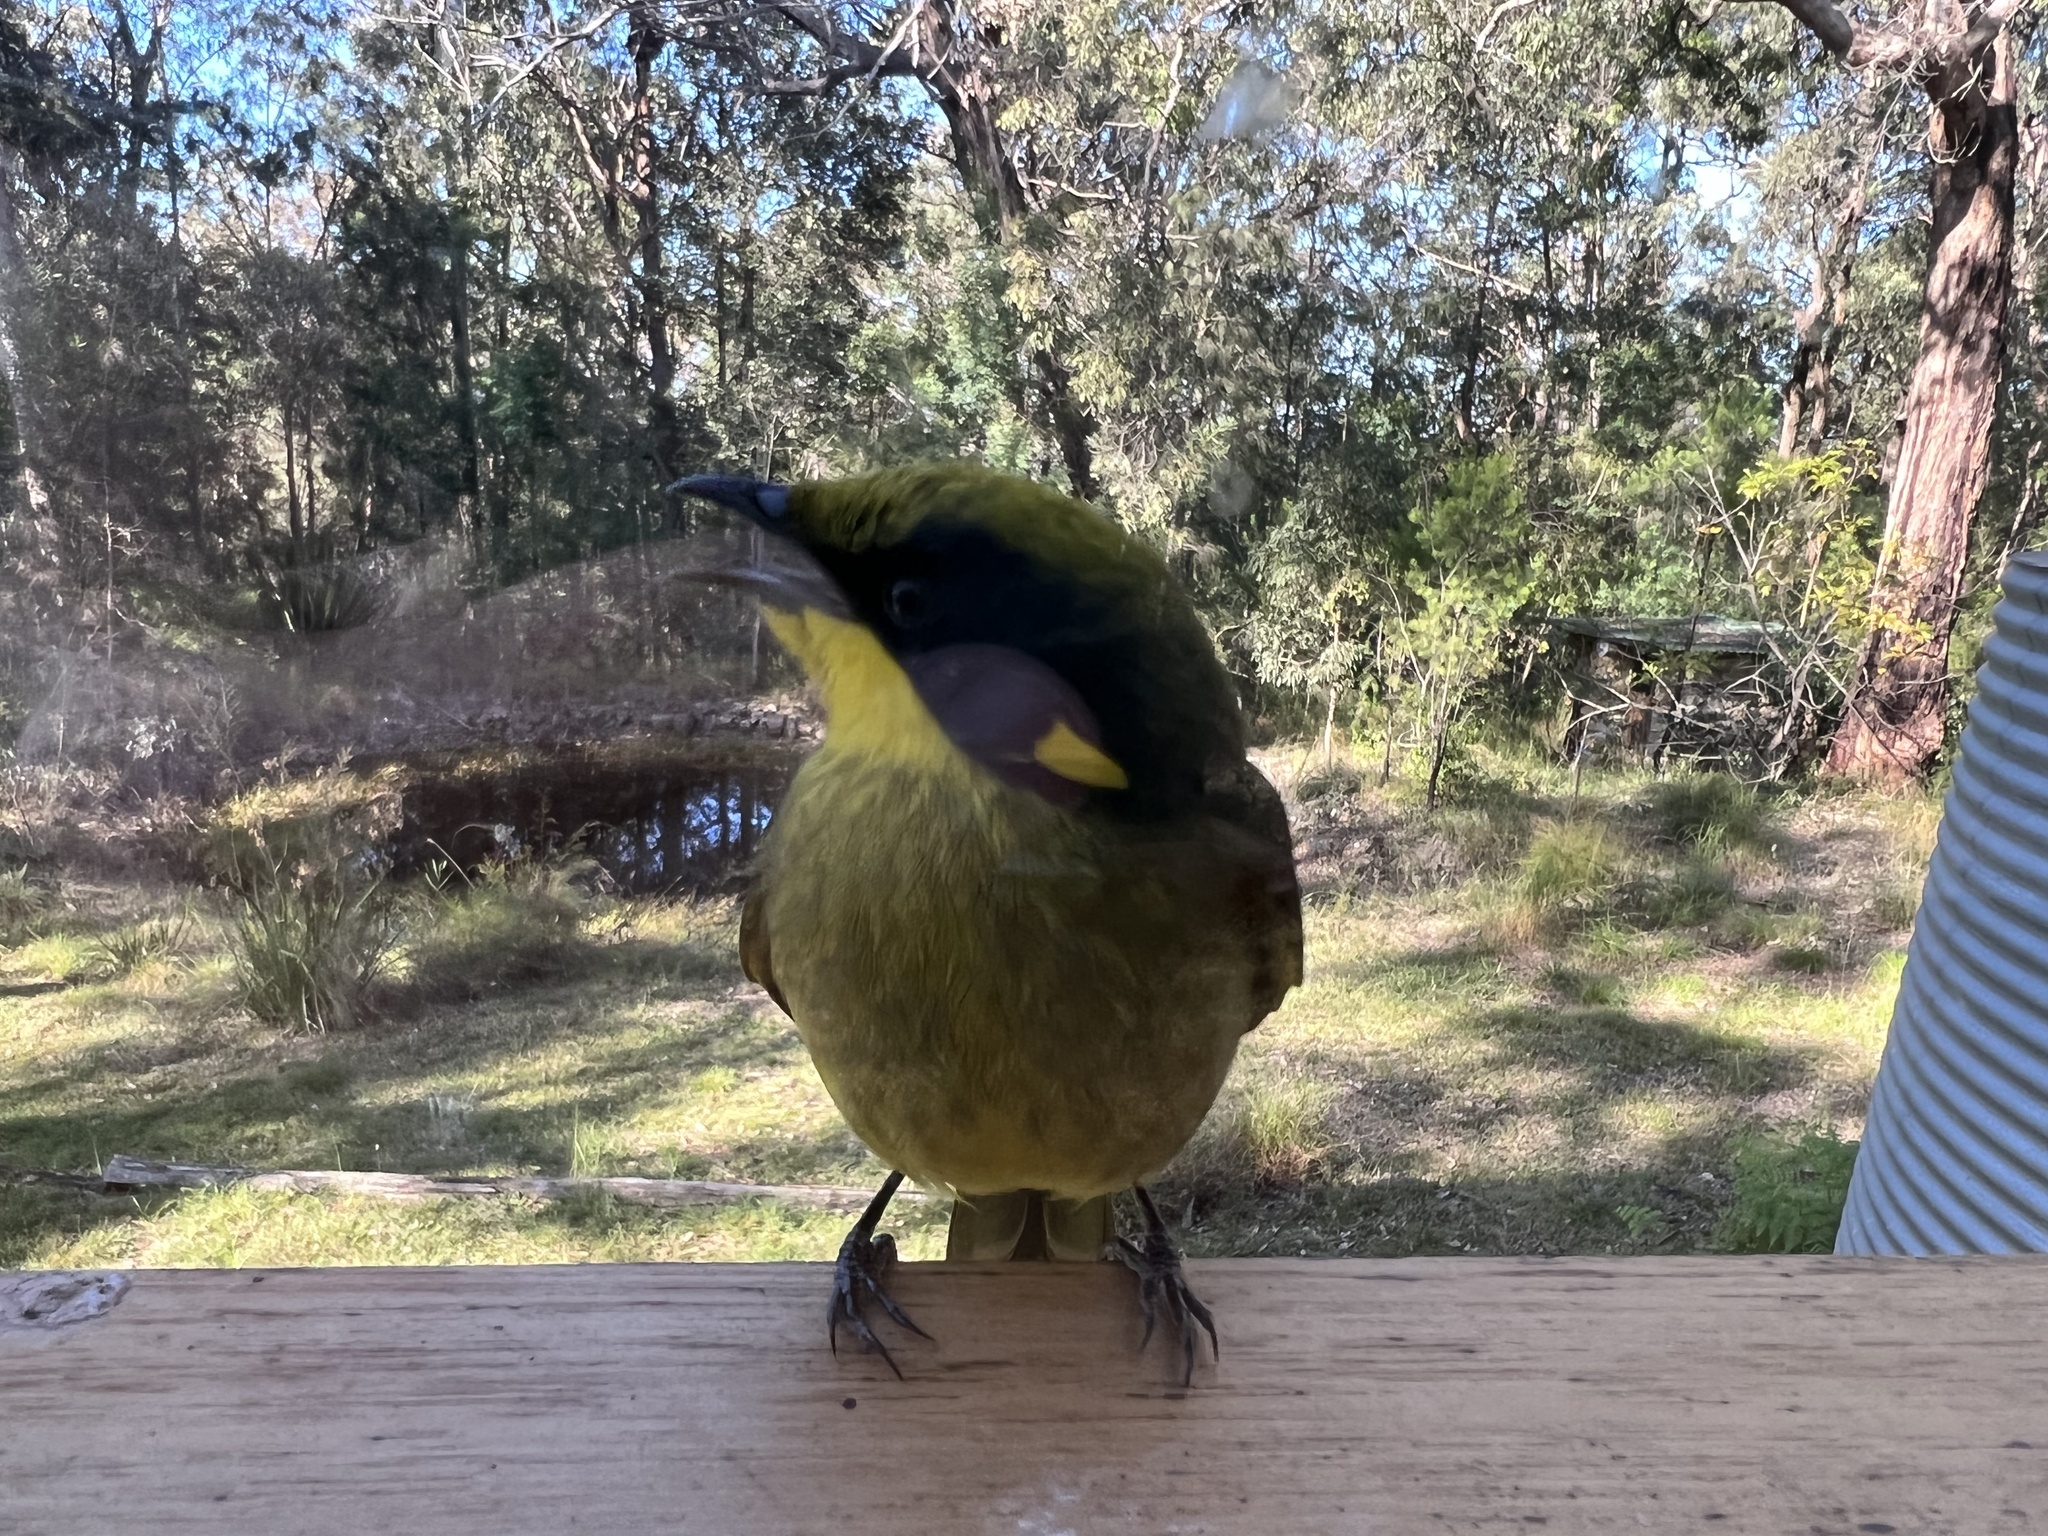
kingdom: Animalia
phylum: Chordata
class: Aves
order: Passeriformes
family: Meliphagidae
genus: Lichenostomus
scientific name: Lichenostomus melanops
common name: Yellow-tufted honeyeater
